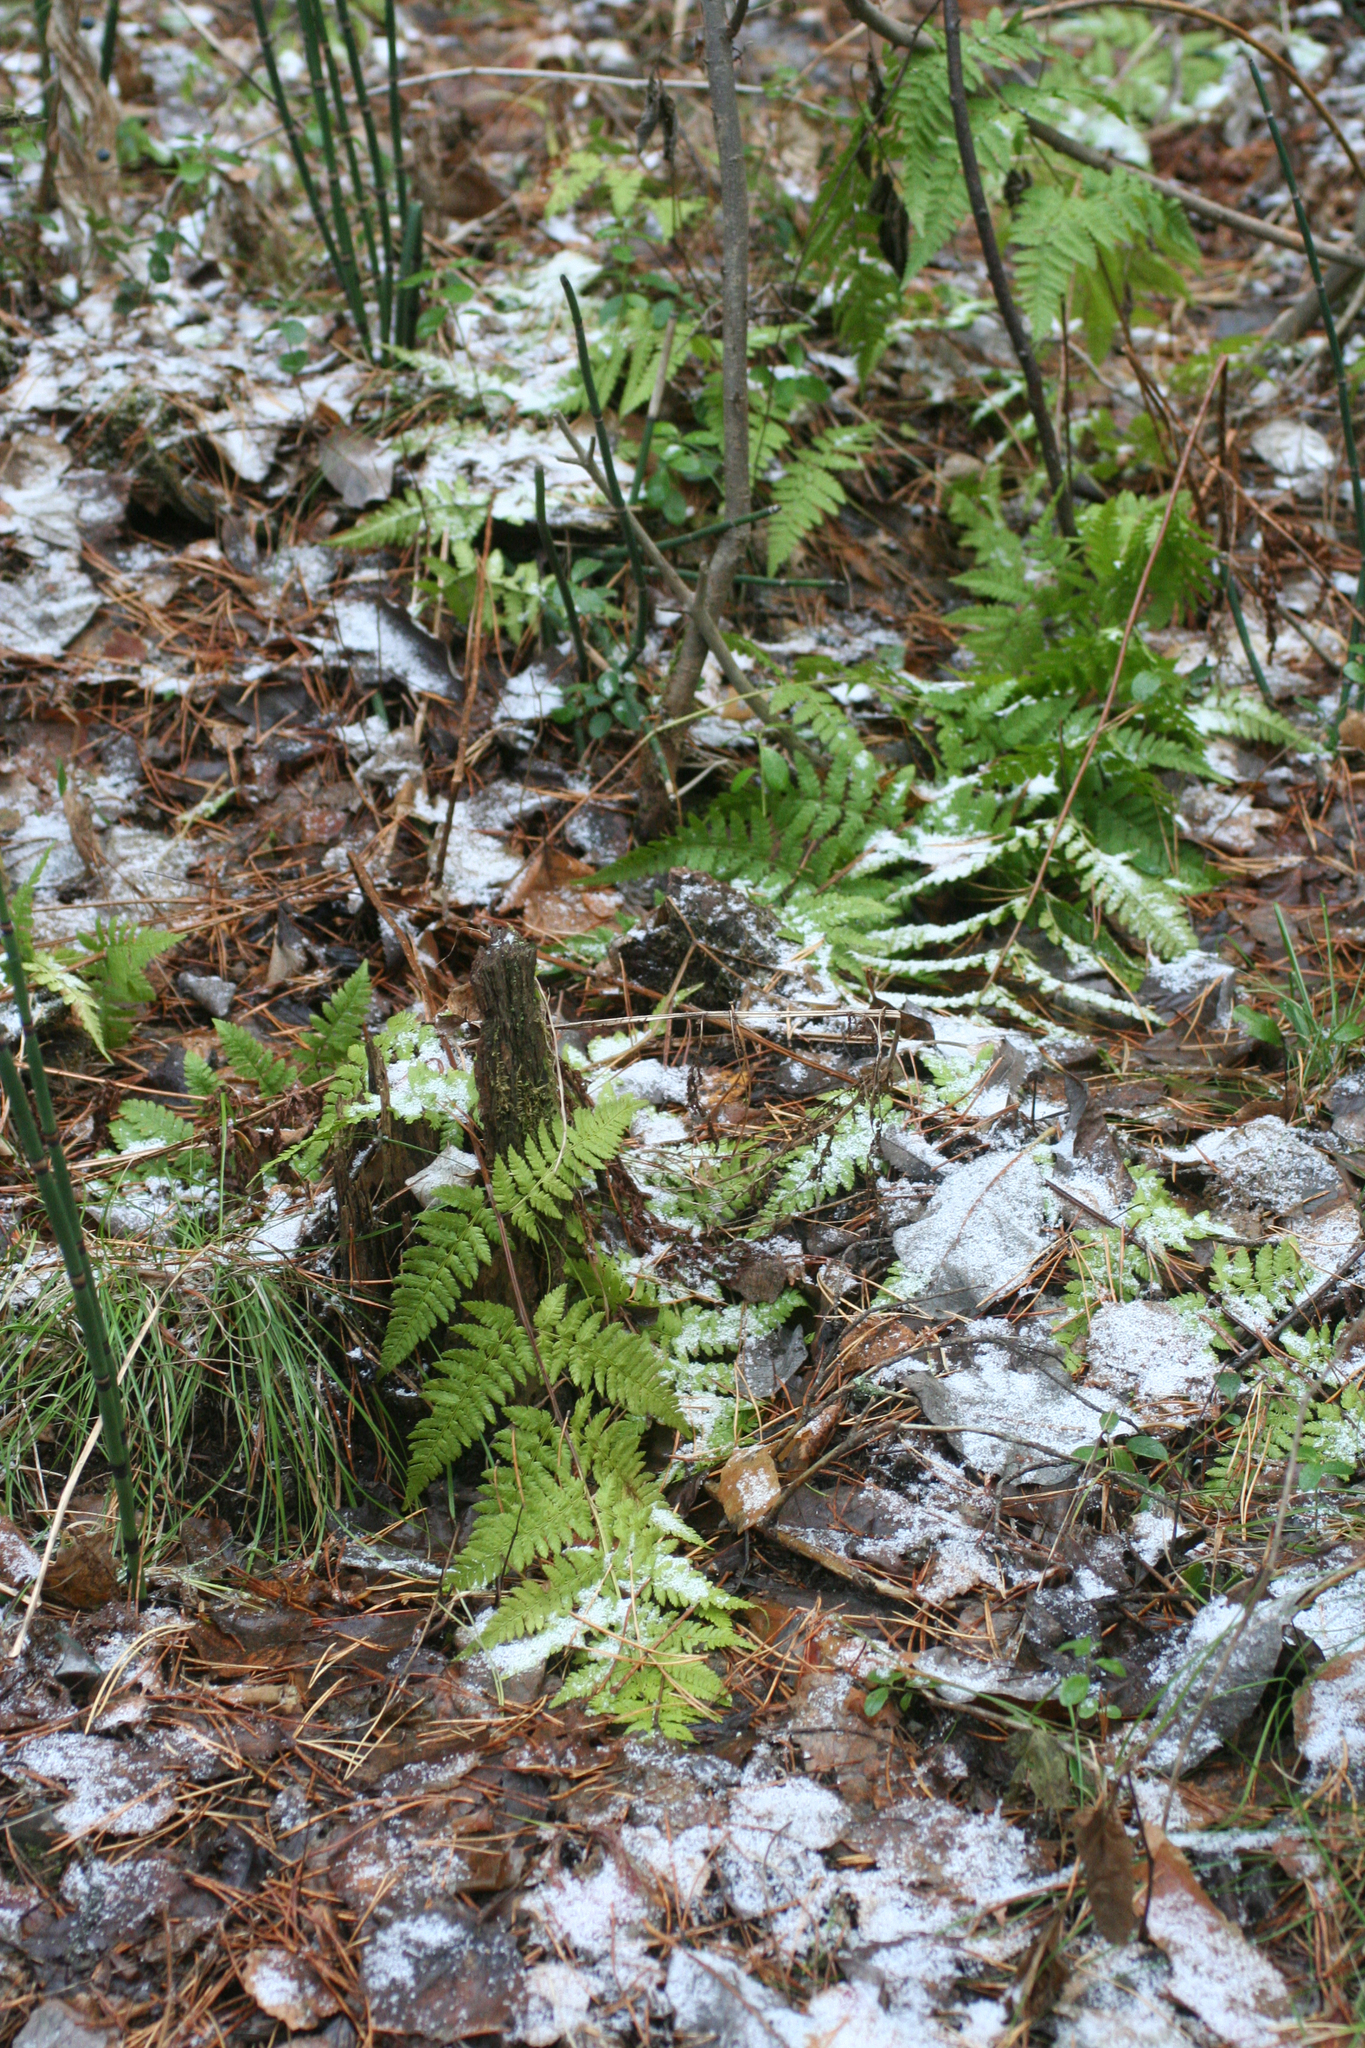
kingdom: Plantae
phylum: Tracheophyta
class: Polypodiopsida
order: Polypodiales
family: Dryopteridaceae
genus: Dryopteris
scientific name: Dryopteris carthusiana
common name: Narrow buckler-fern
